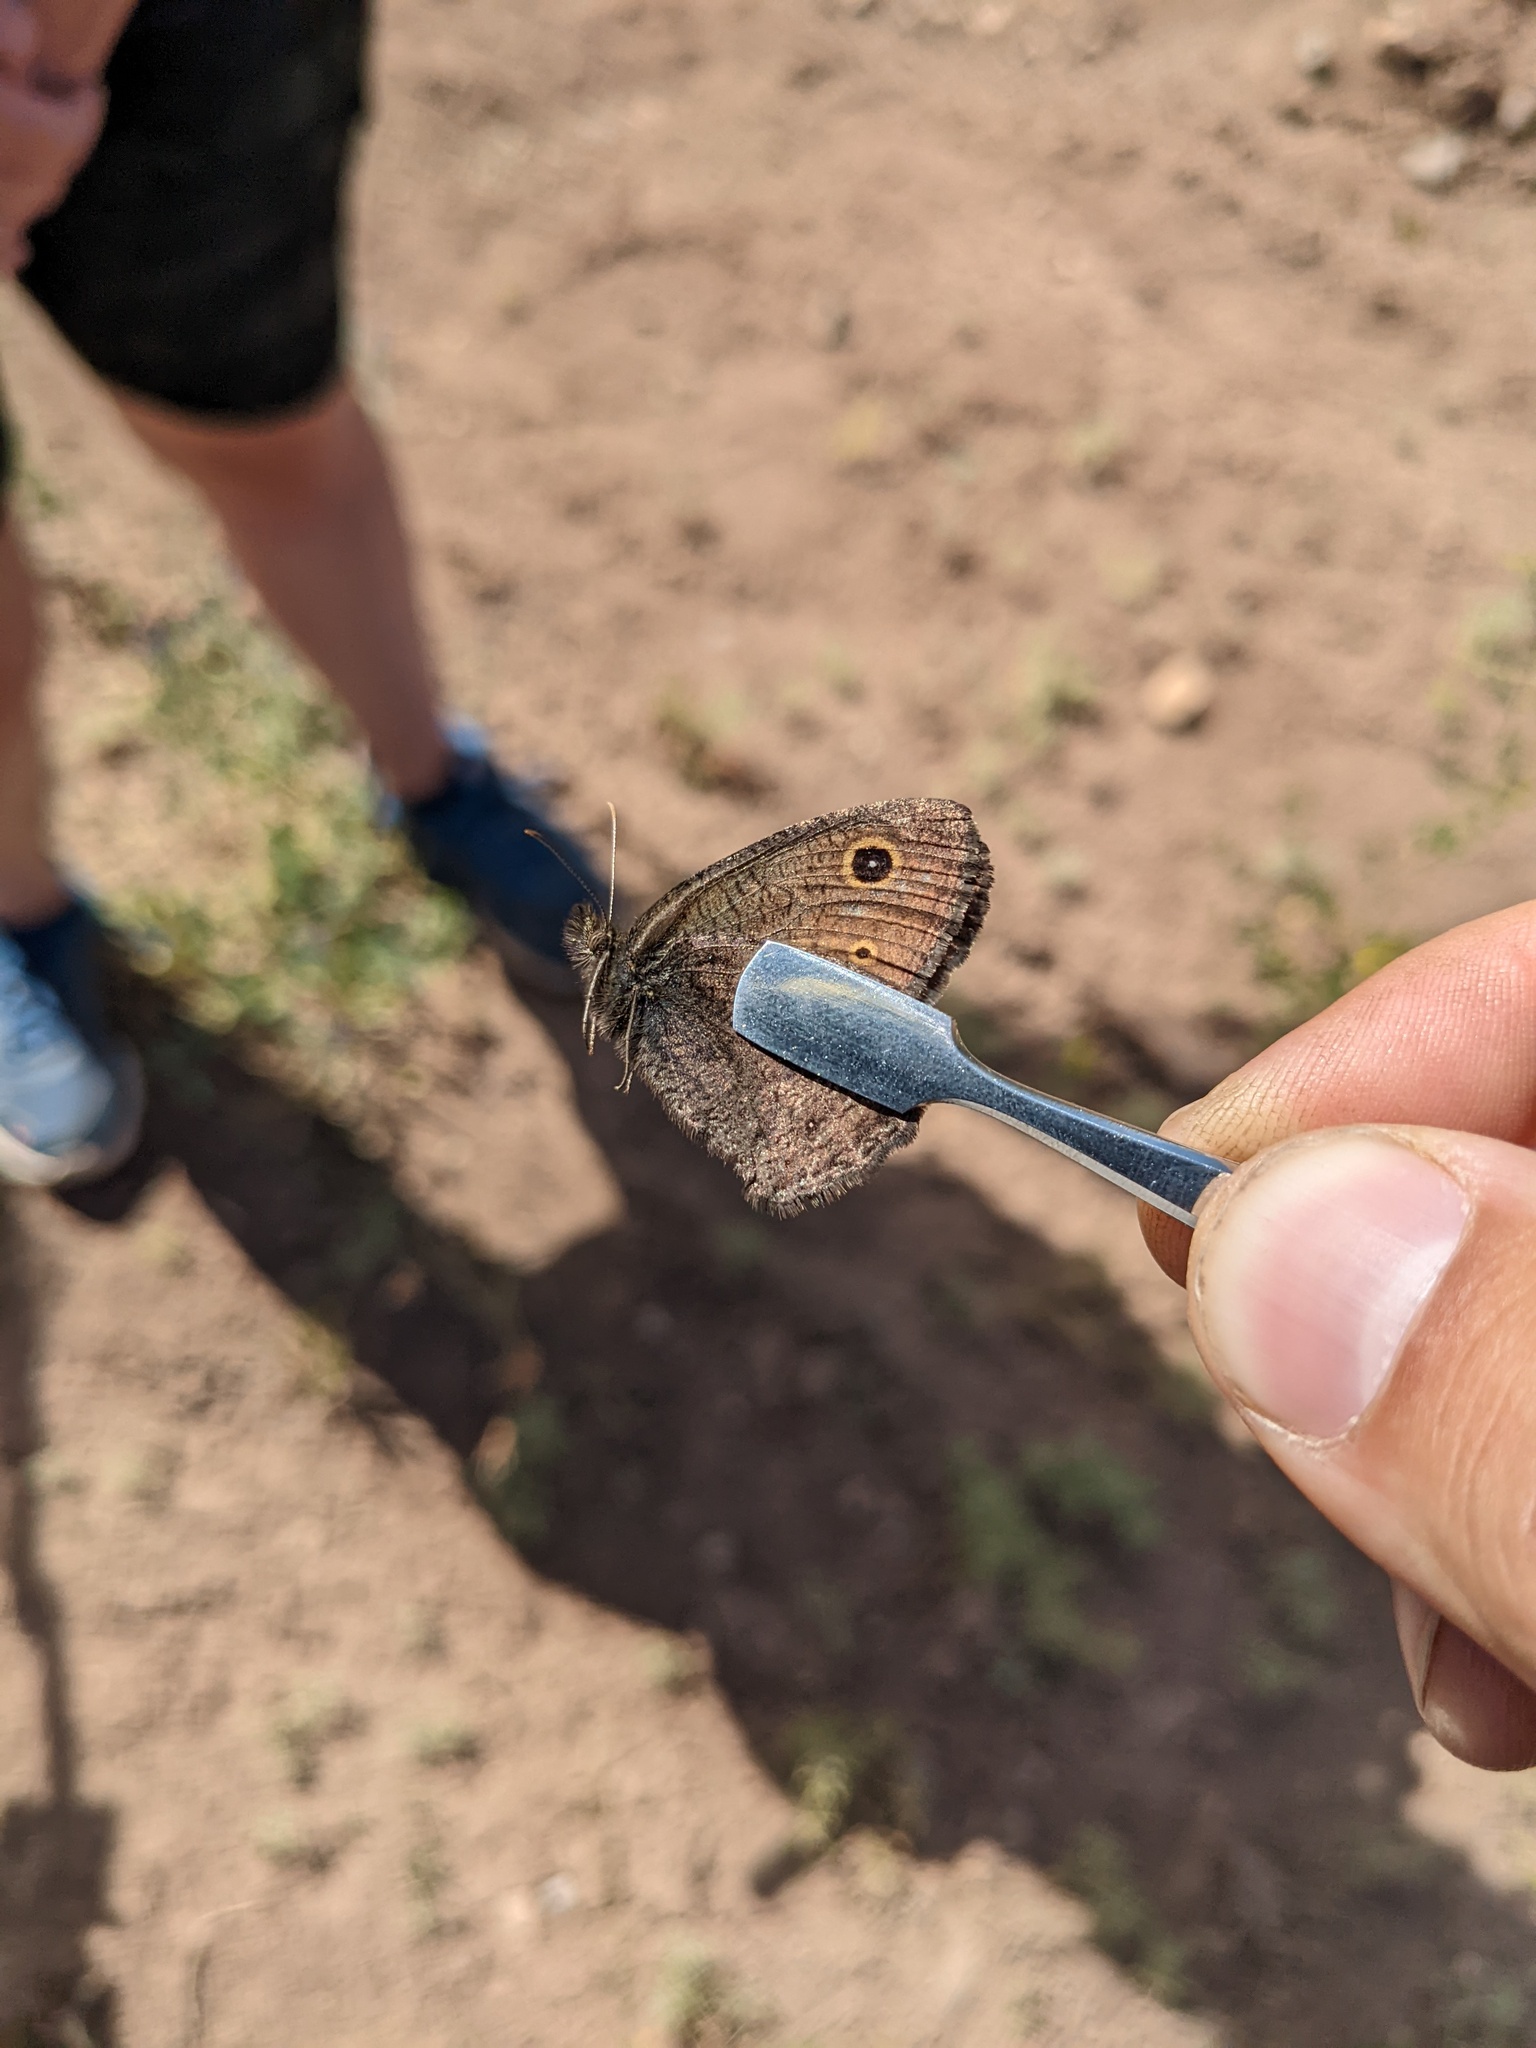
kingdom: Animalia
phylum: Arthropoda
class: Insecta
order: Lepidoptera
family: Nymphalidae
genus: Cercyonis
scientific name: Cercyonis oetus
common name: Small wood-nymph
